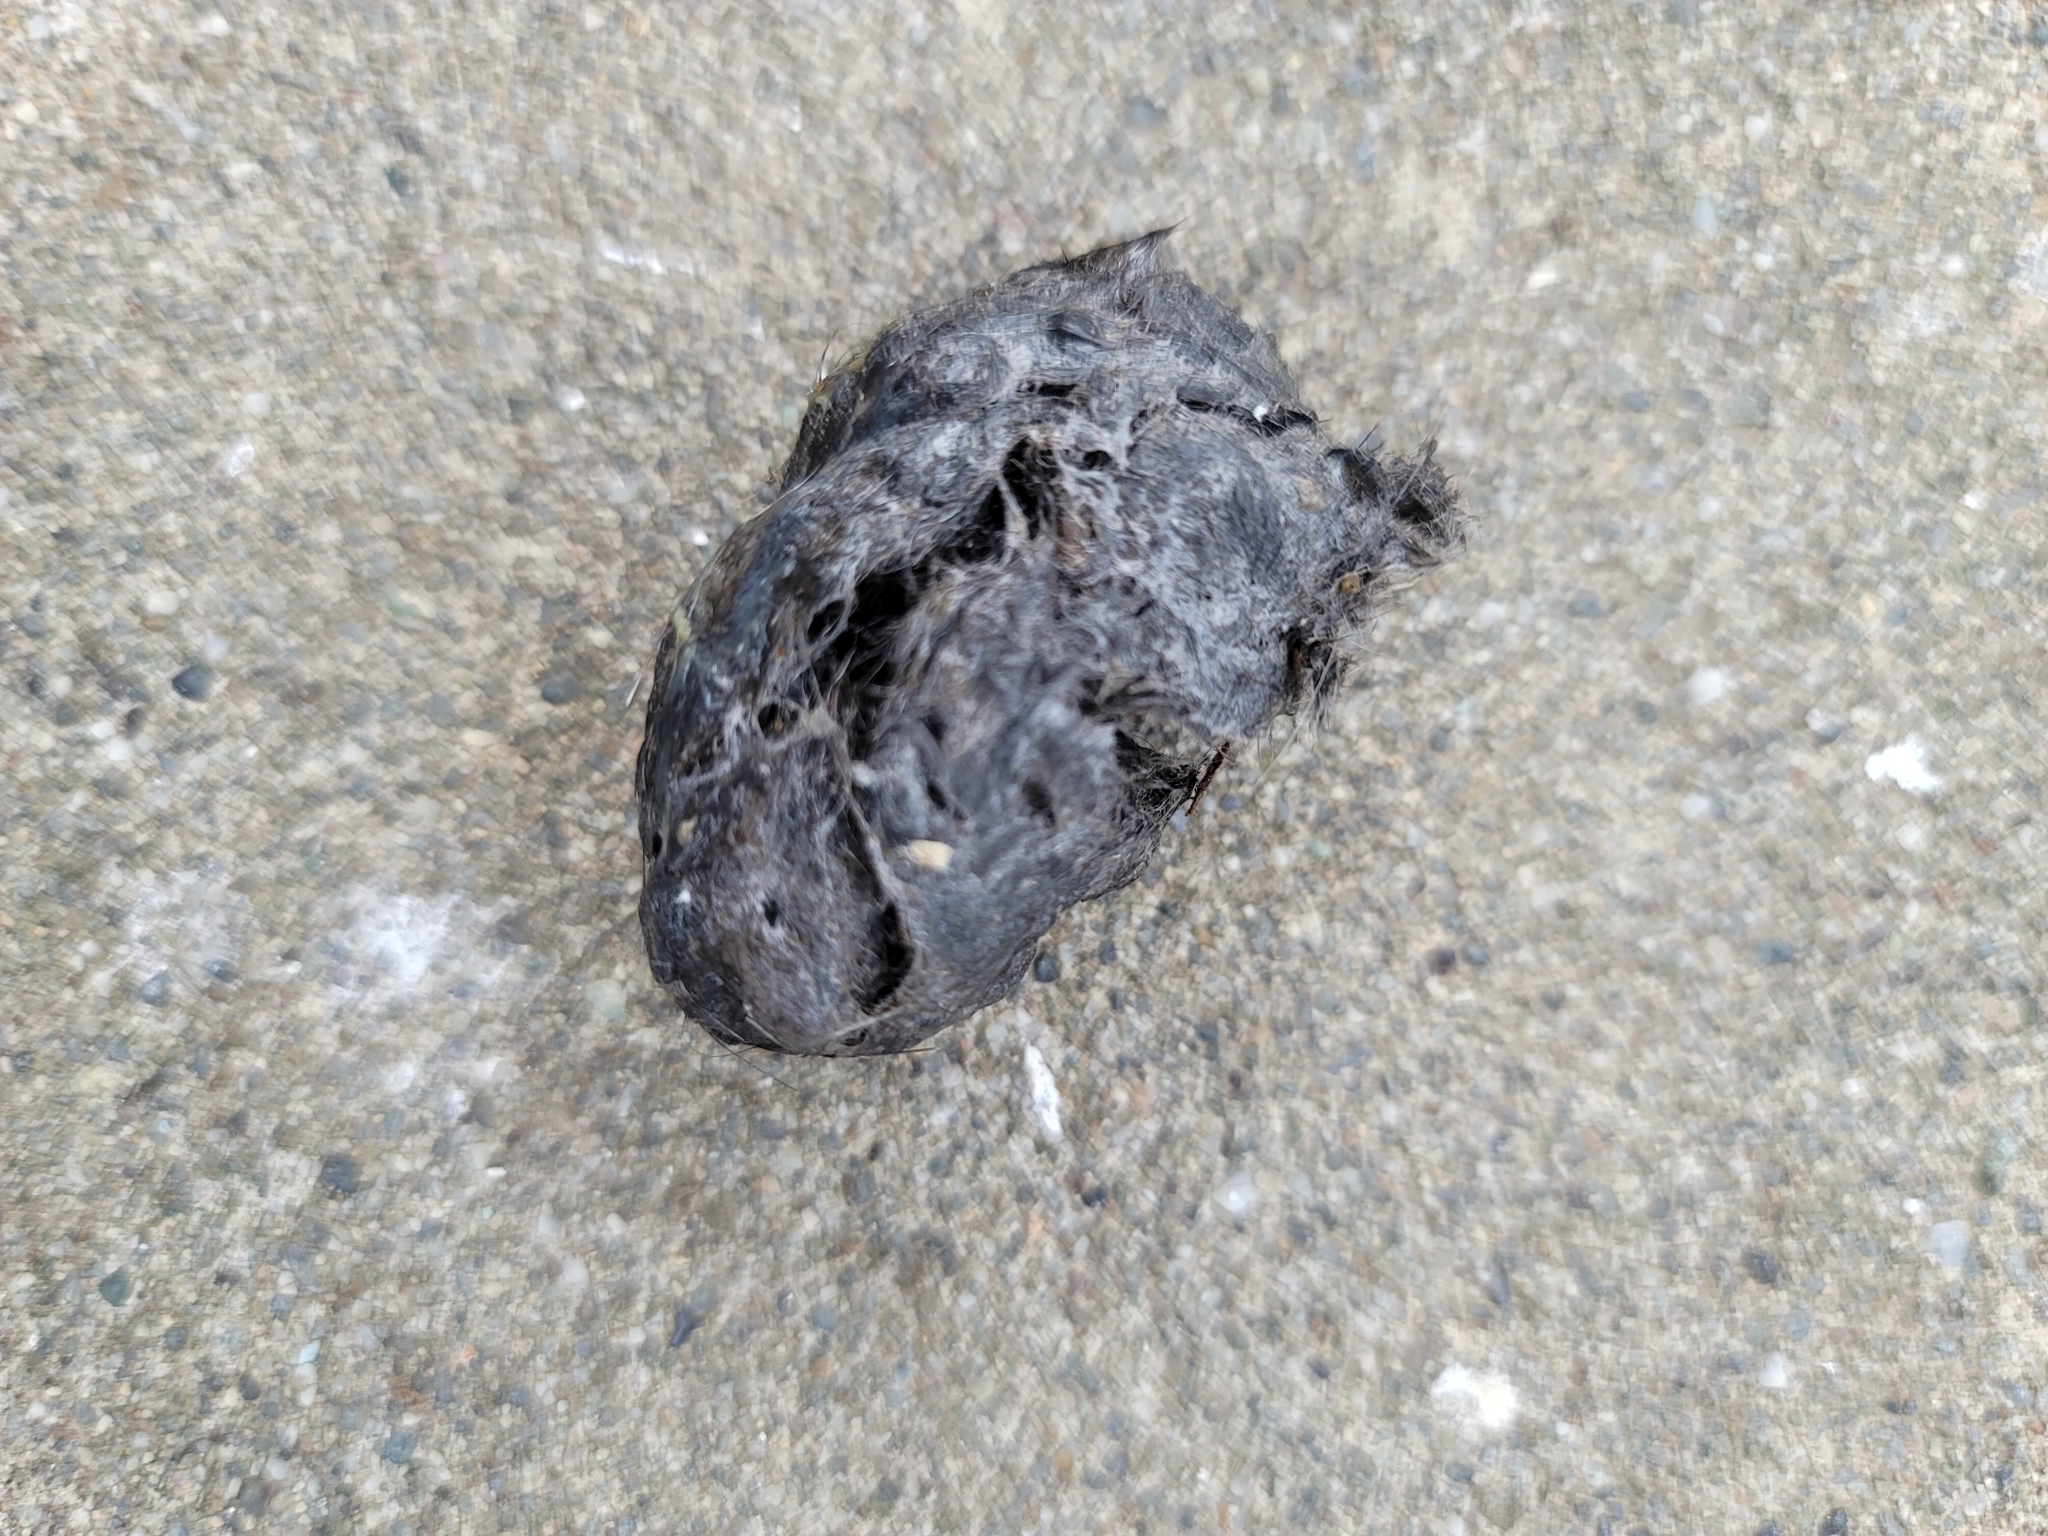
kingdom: Animalia
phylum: Chordata
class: Aves
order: Accipitriformes
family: Accipitridae
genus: Elanus
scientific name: Elanus leucurus
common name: White-tailed kite
